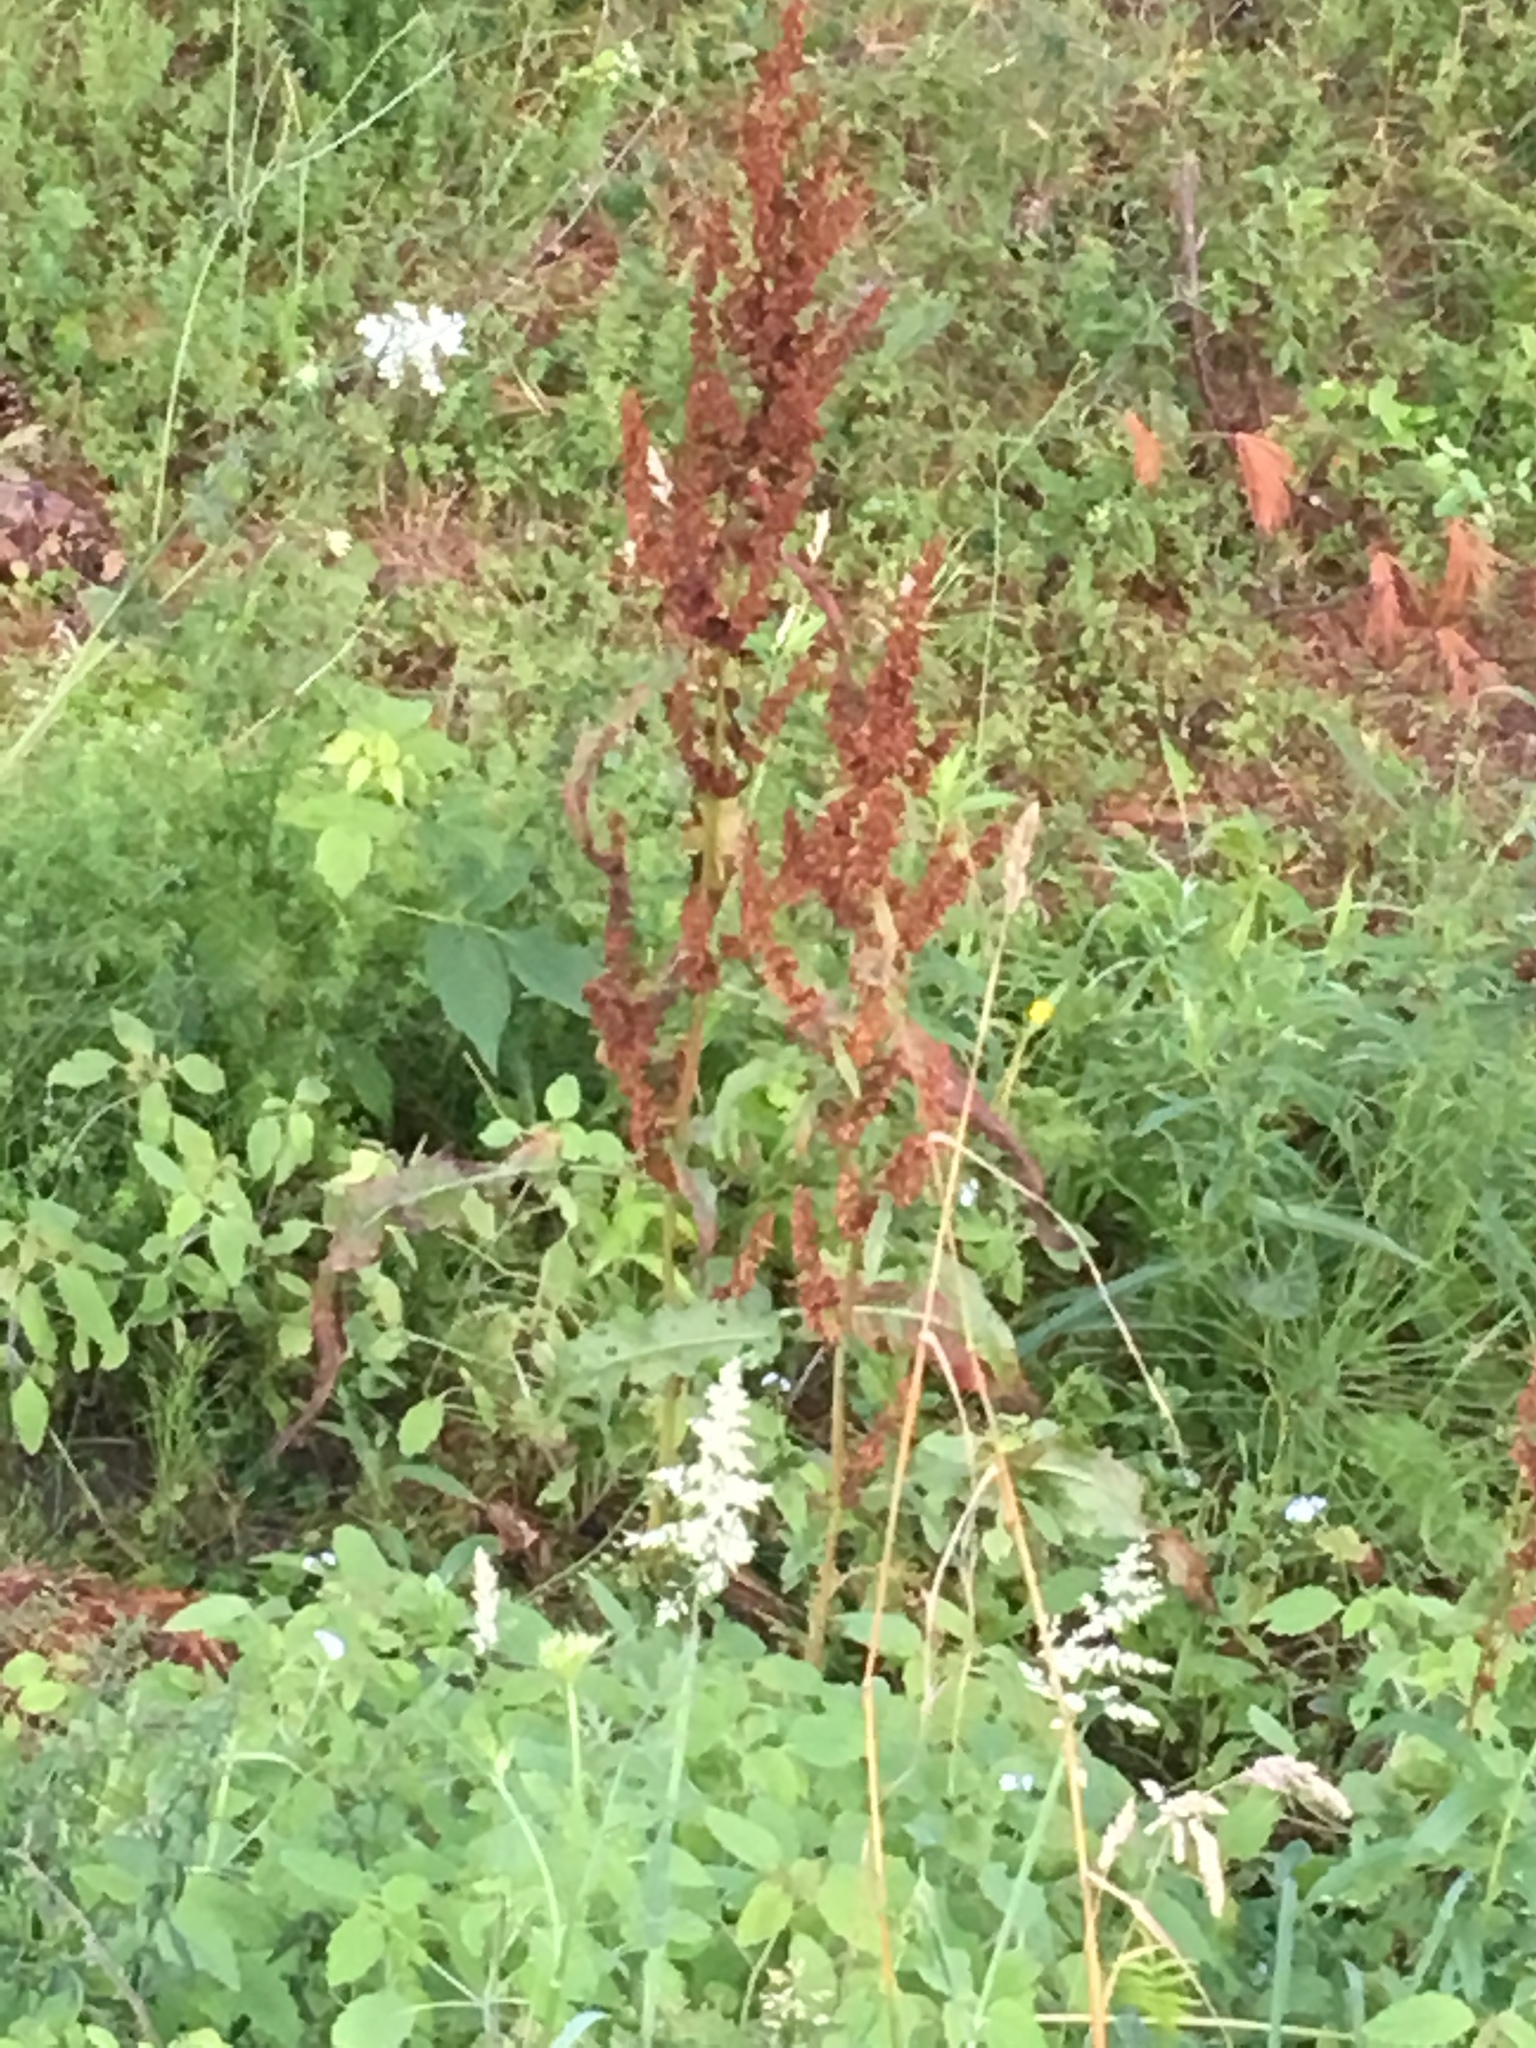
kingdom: Plantae
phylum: Tracheophyta
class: Magnoliopsida
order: Caryophyllales
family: Polygonaceae
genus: Rumex
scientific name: Rumex crispus
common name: Curled dock
